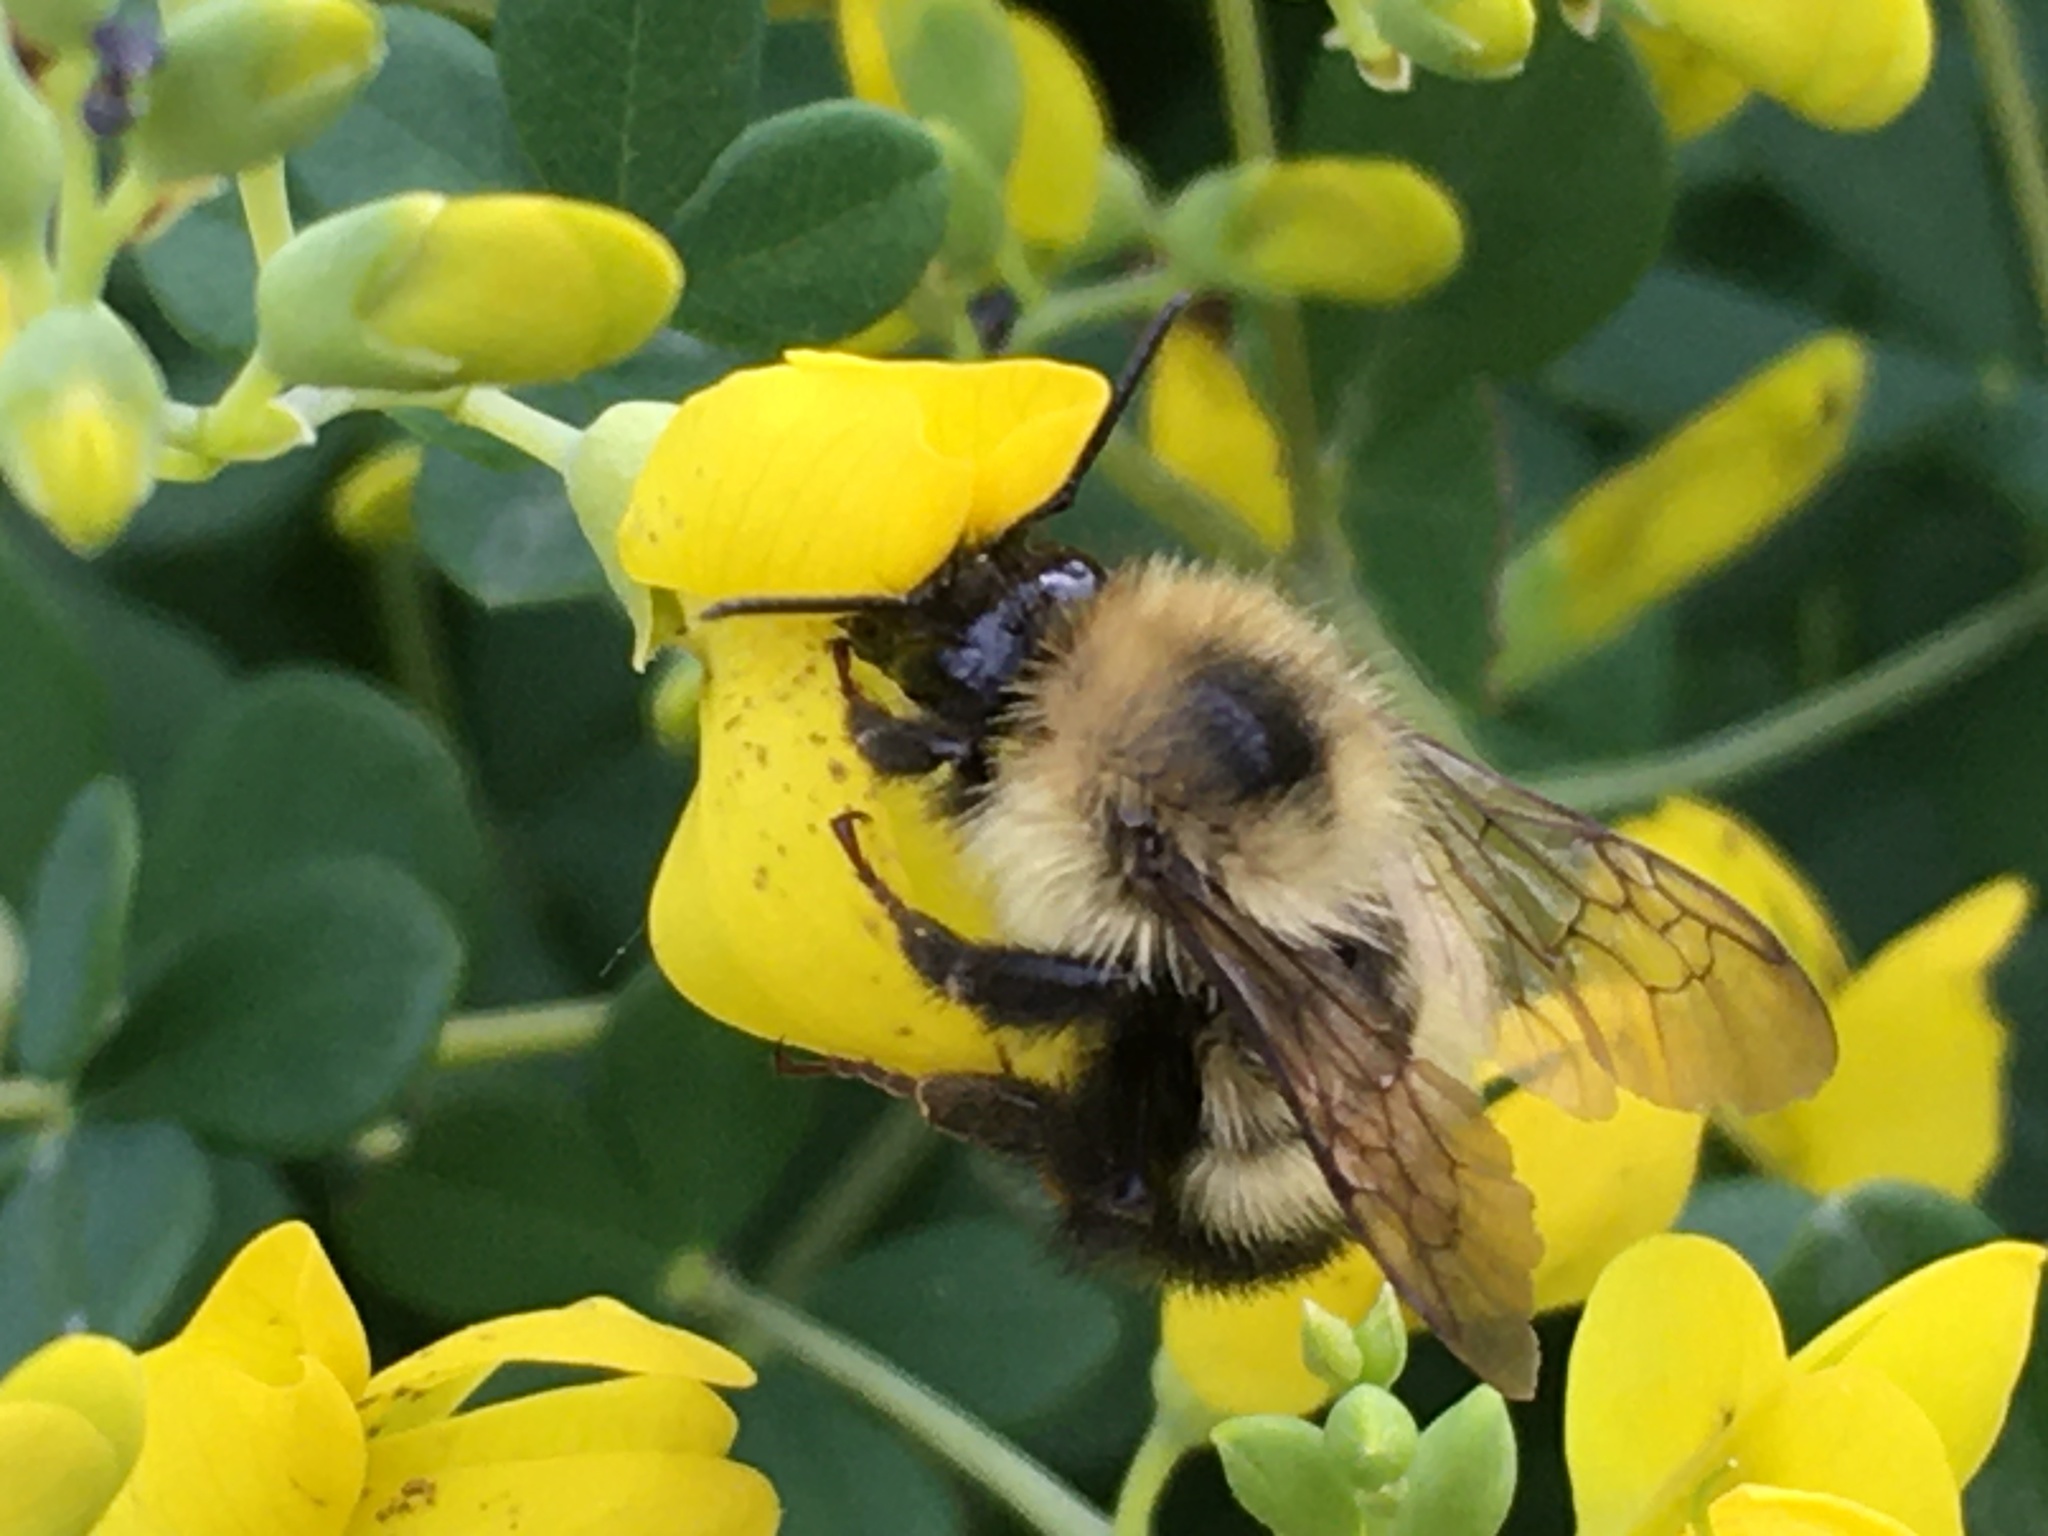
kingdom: Animalia
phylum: Arthropoda
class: Insecta
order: Hymenoptera
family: Apidae
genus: Pyrobombus
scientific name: Pyrobombus
